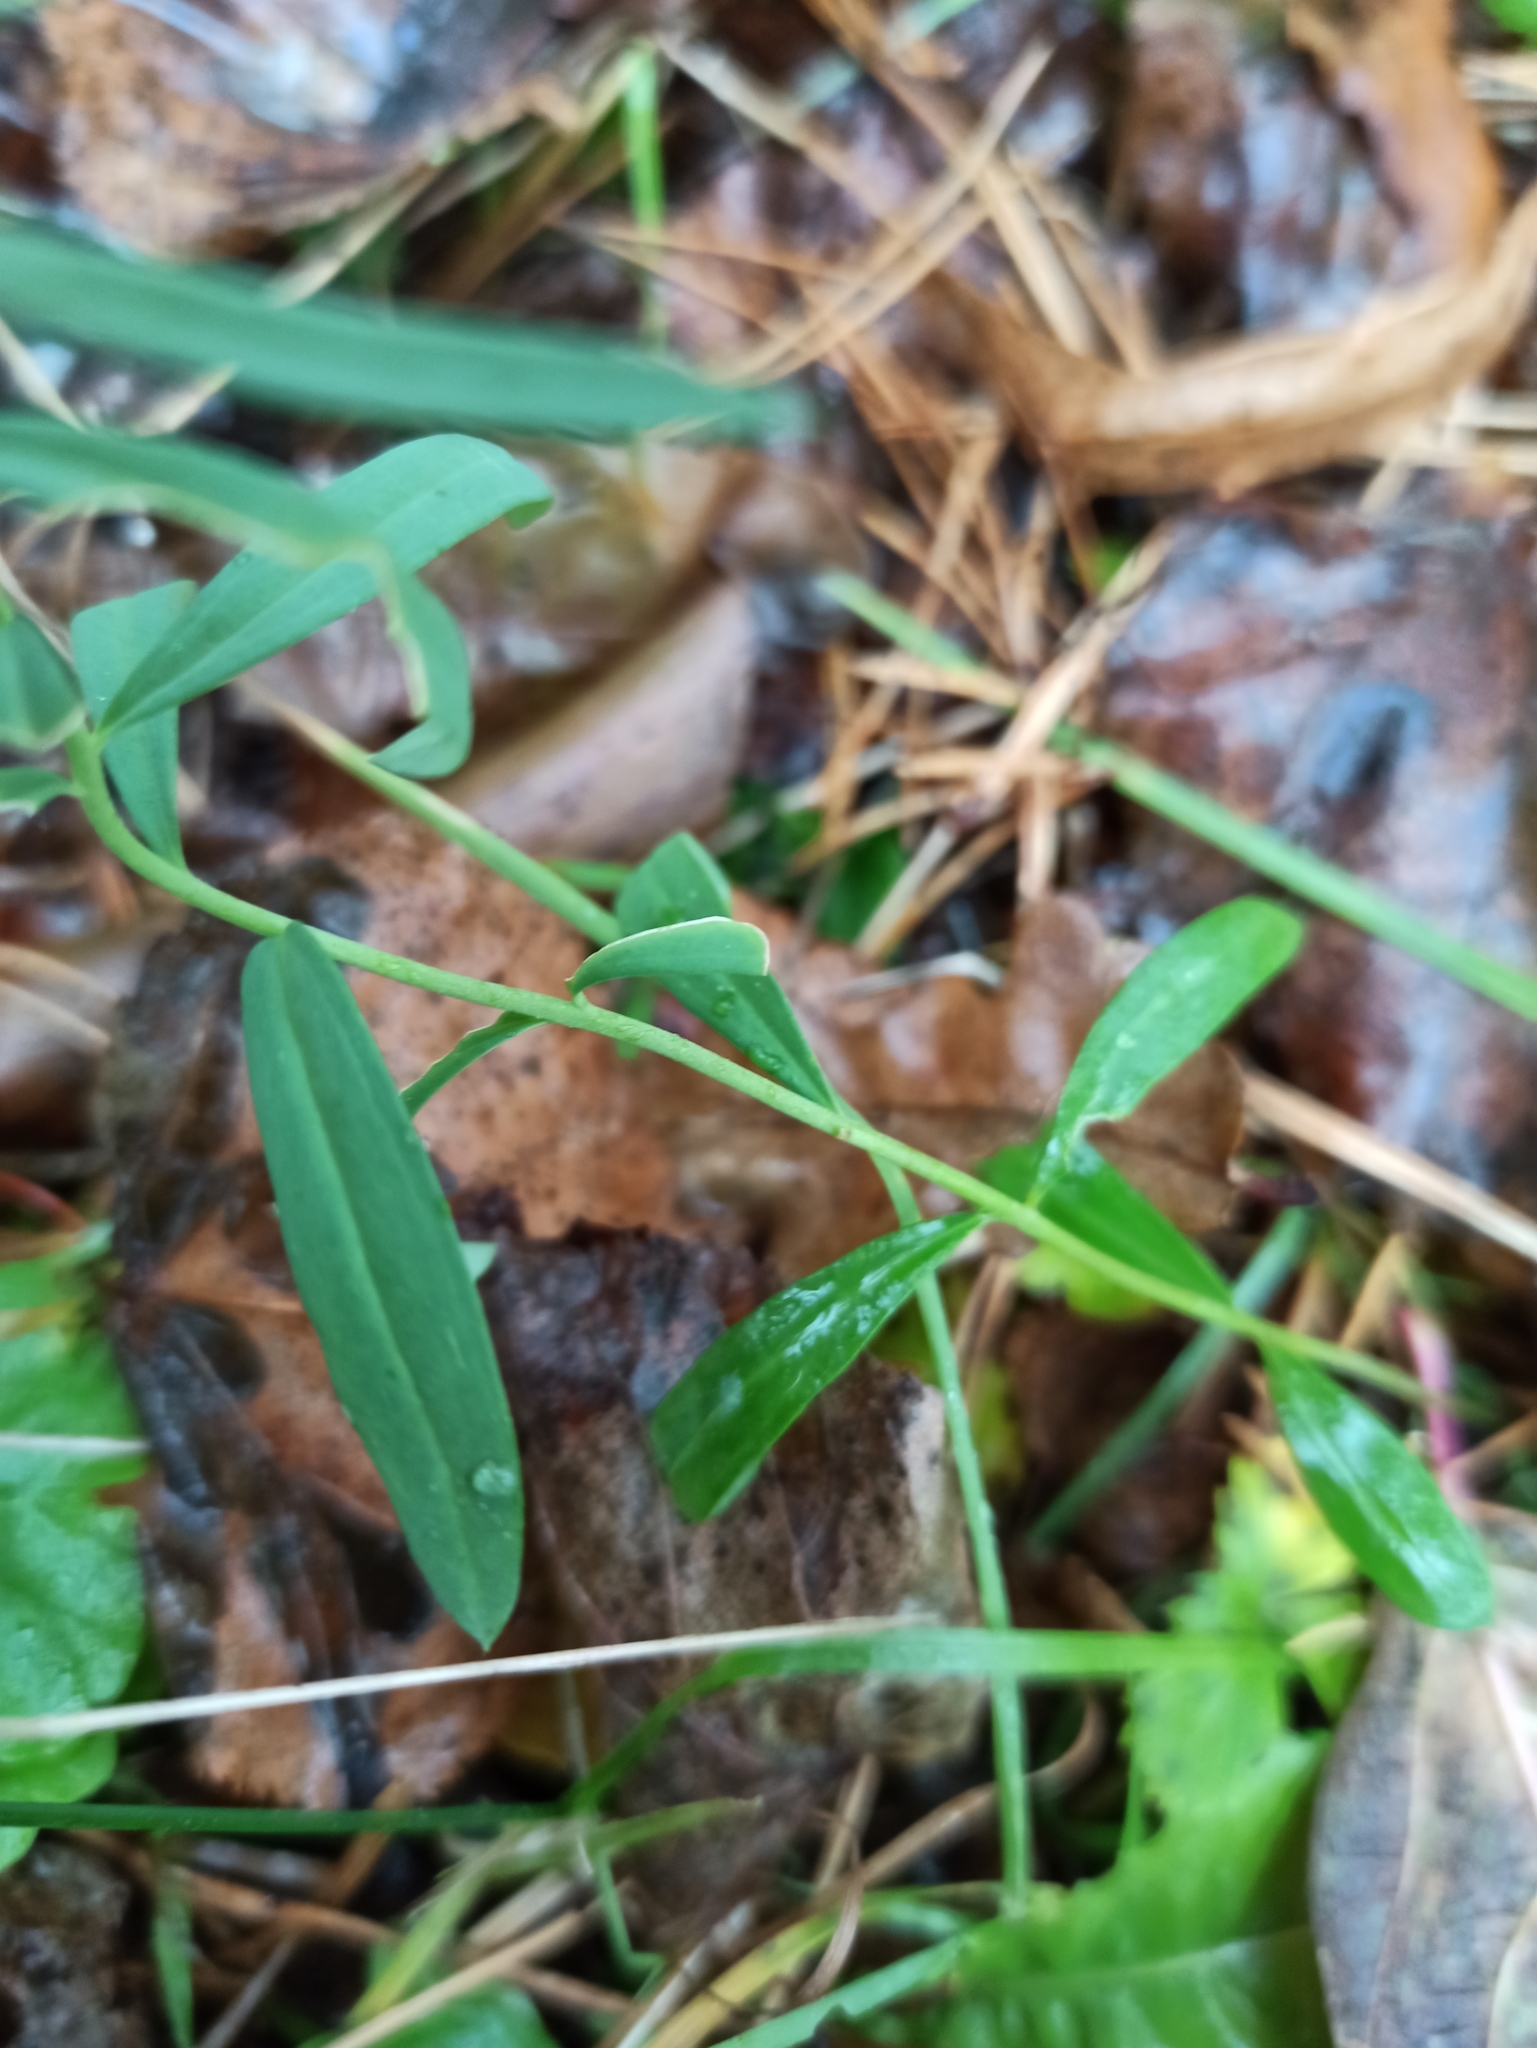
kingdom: Plantae
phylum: Tracheophyta
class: Magnoliopsida
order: Lamiales
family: Plantaginaceae
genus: Linaria
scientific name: Linaria vulgaris
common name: Butter and eggs
